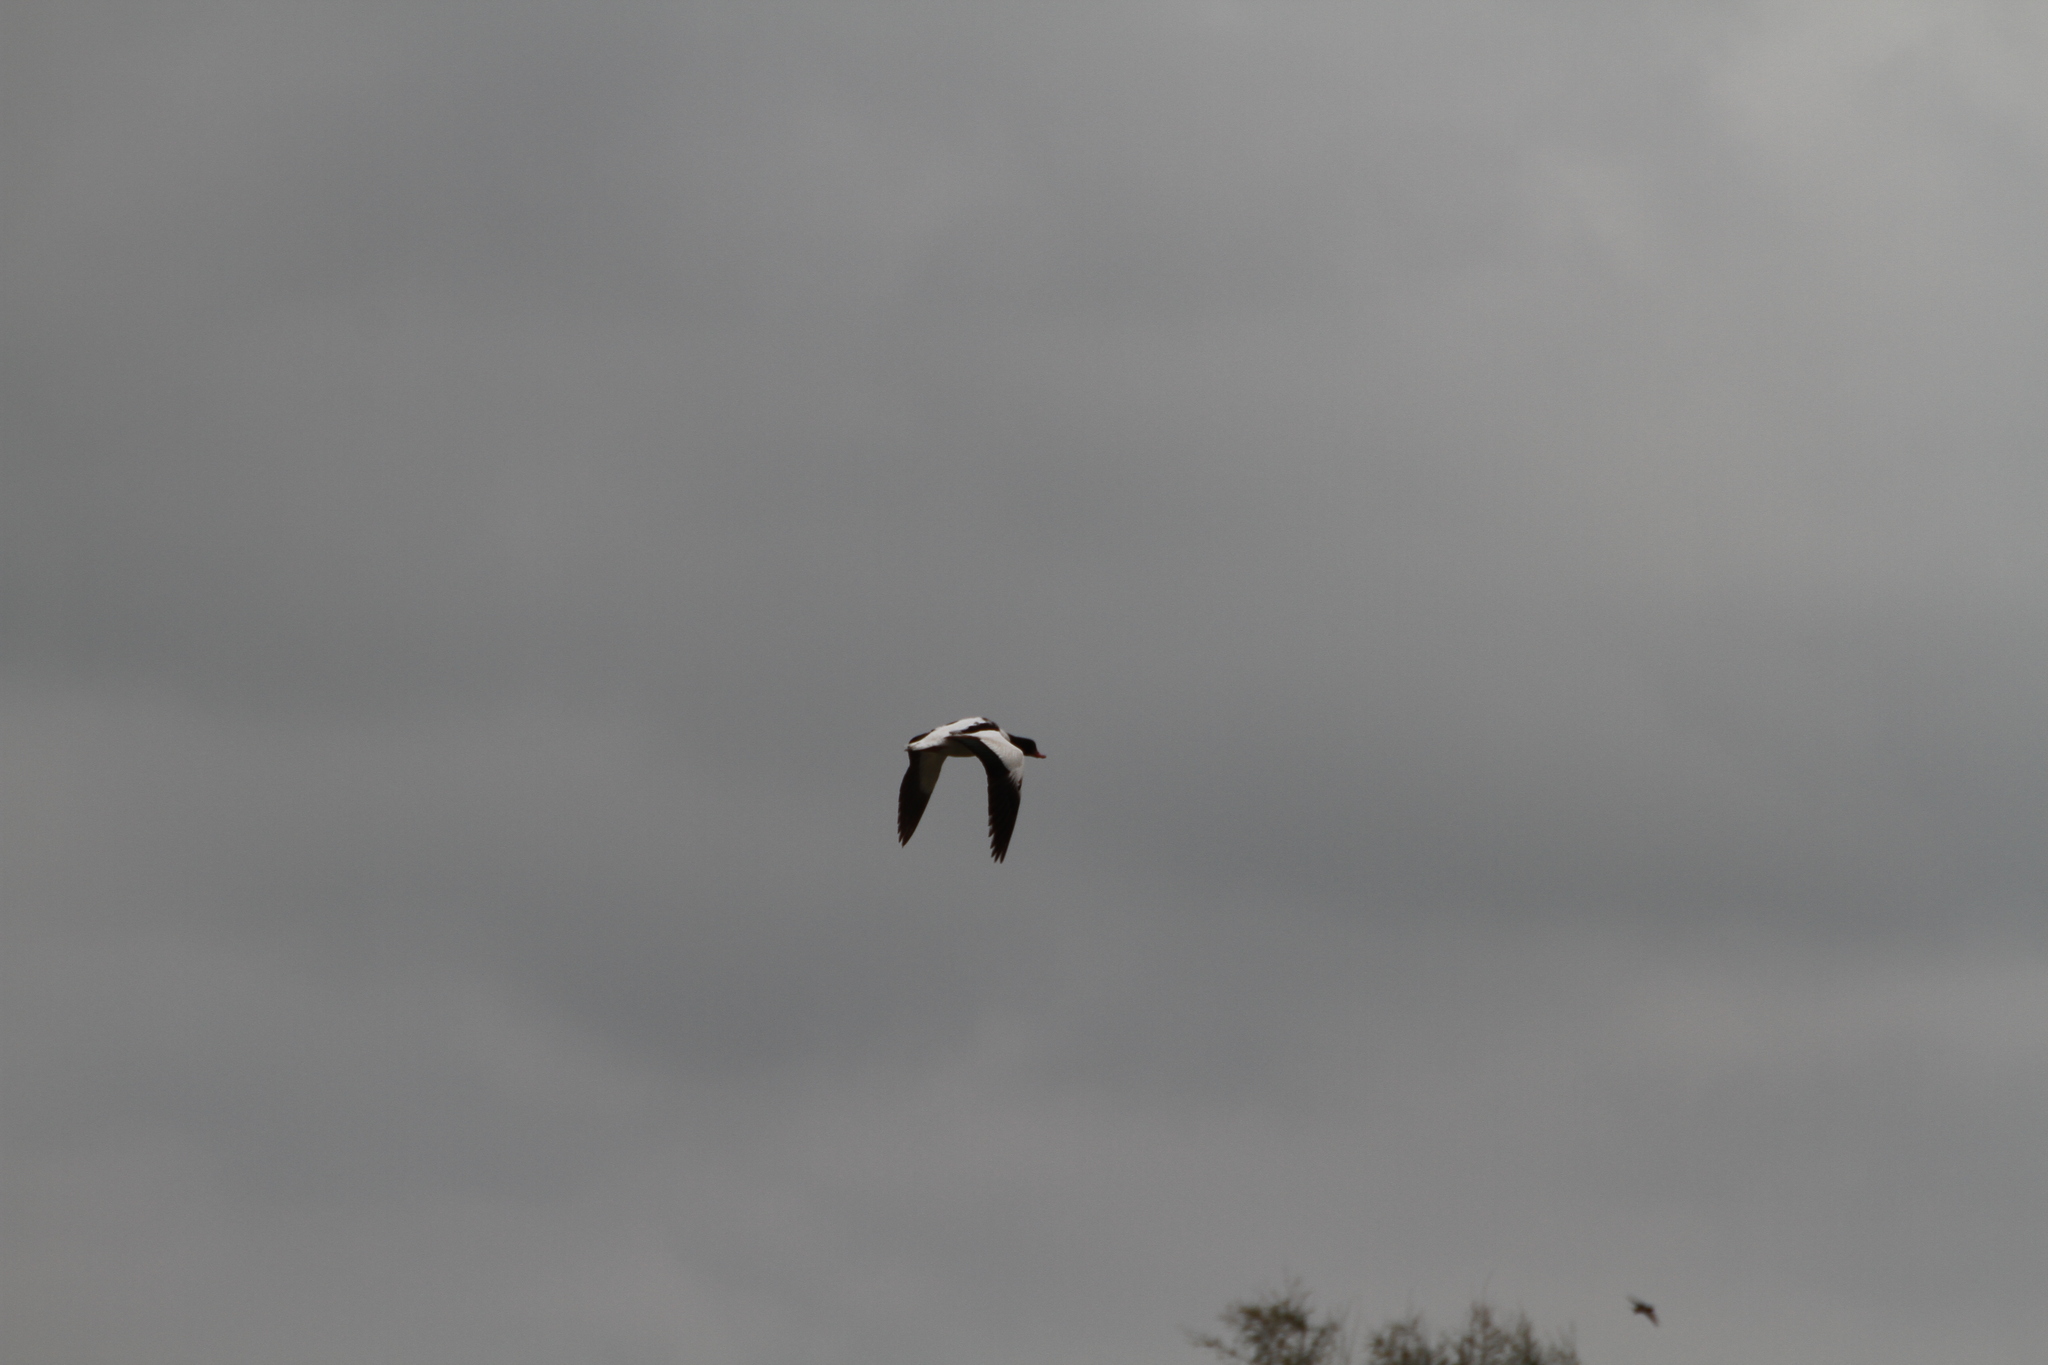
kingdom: Animalia
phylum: Chordata
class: Aves
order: Anseriformes
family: Anatidae
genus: Tadorna
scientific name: Tadorna tadorna
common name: Common shelduck
